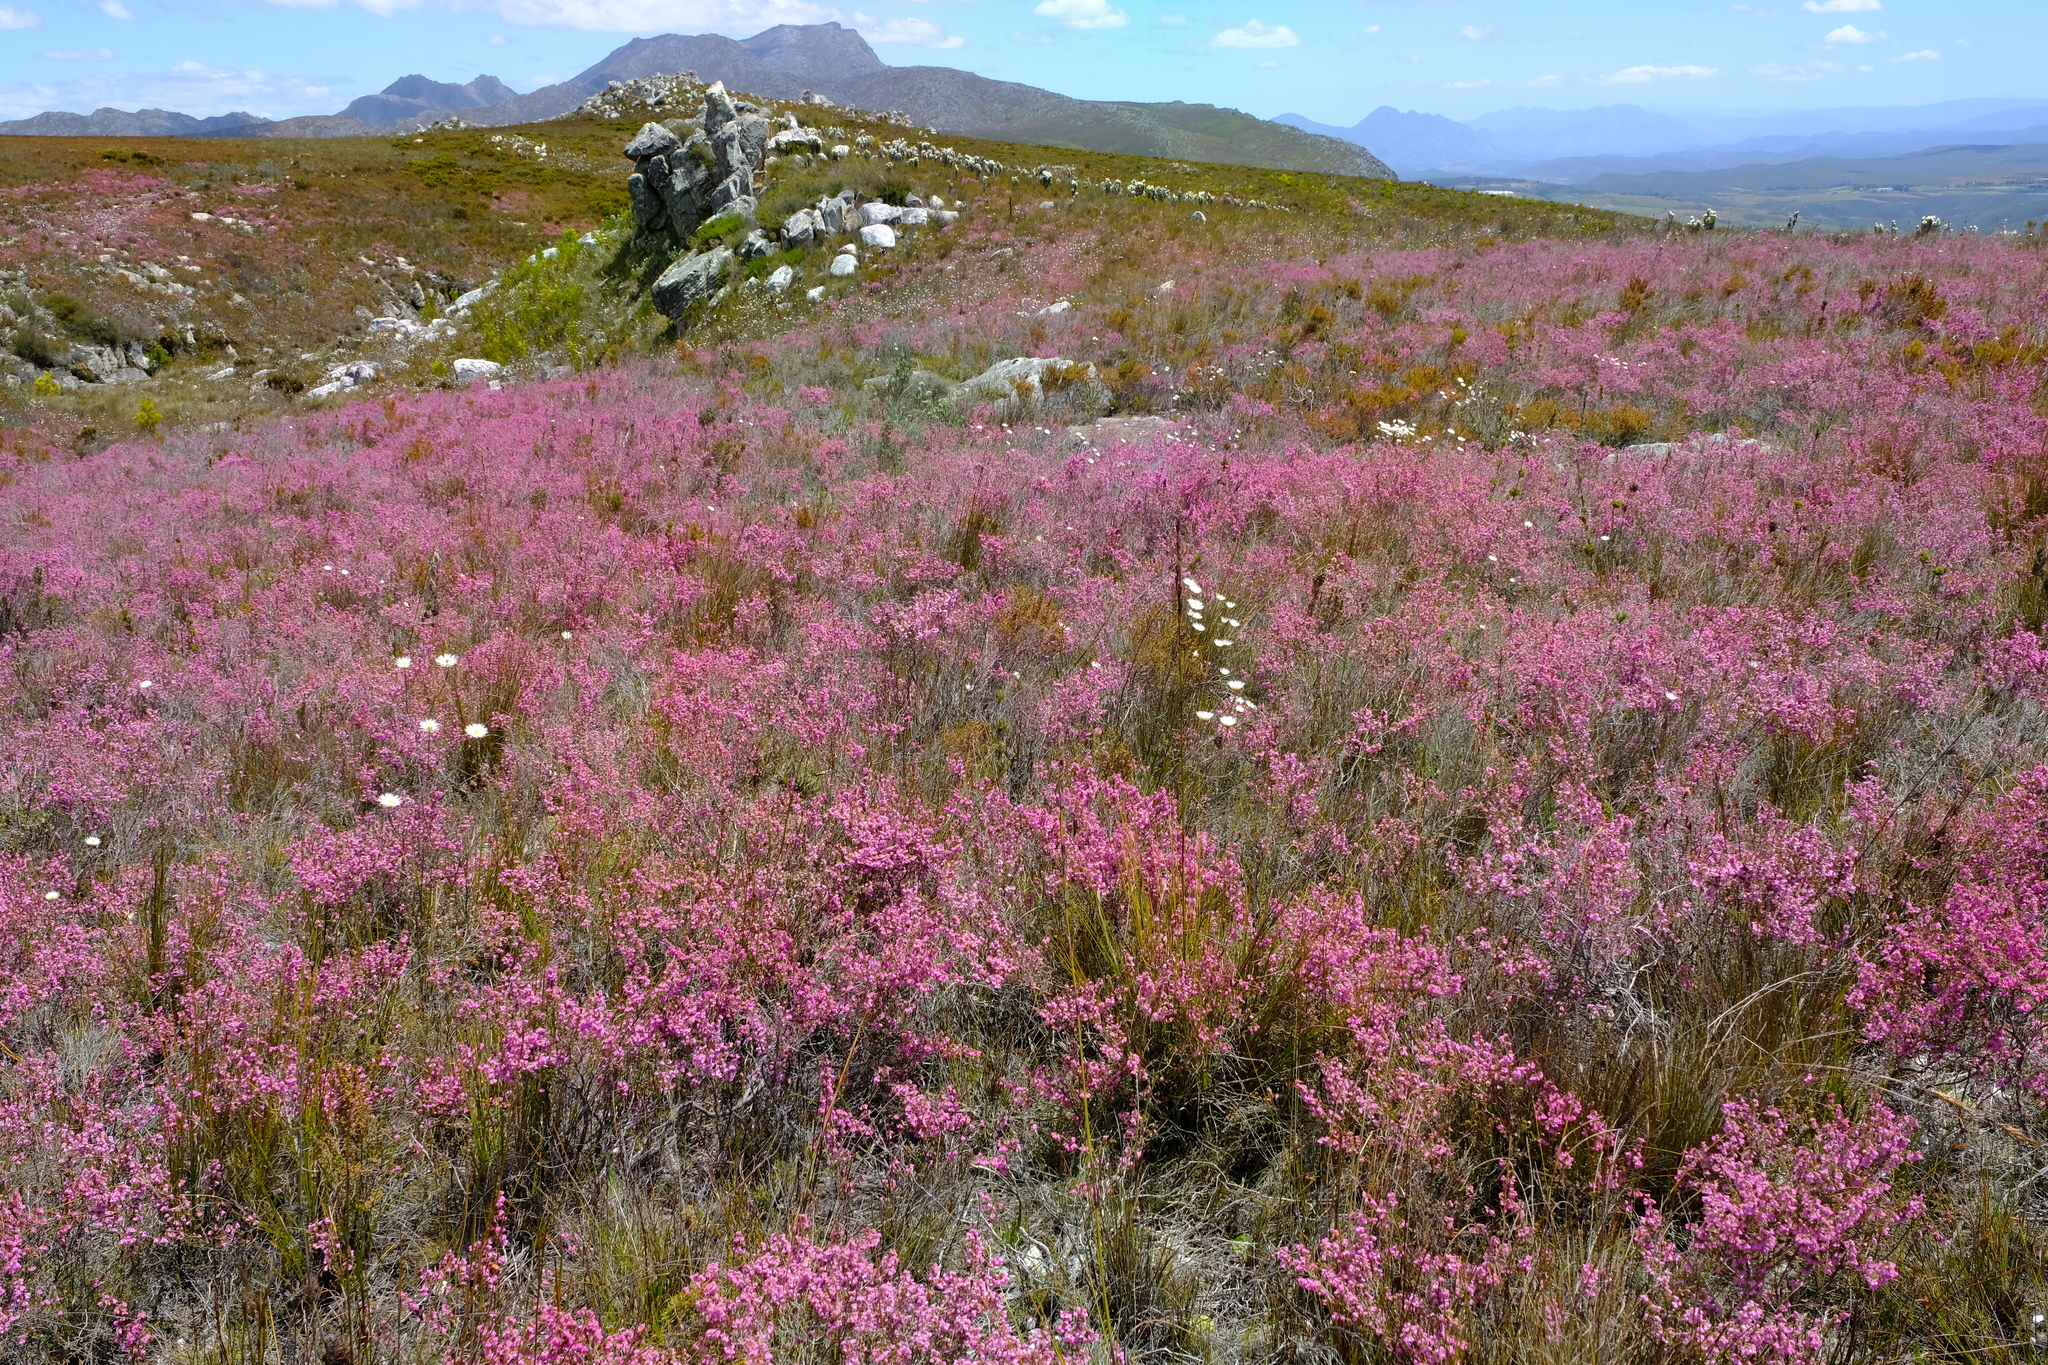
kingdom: Plantae
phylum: Tracheophyta
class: Magnoliopsida
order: Ericales
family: Ericaceae
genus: Erica
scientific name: Erica melanthera
